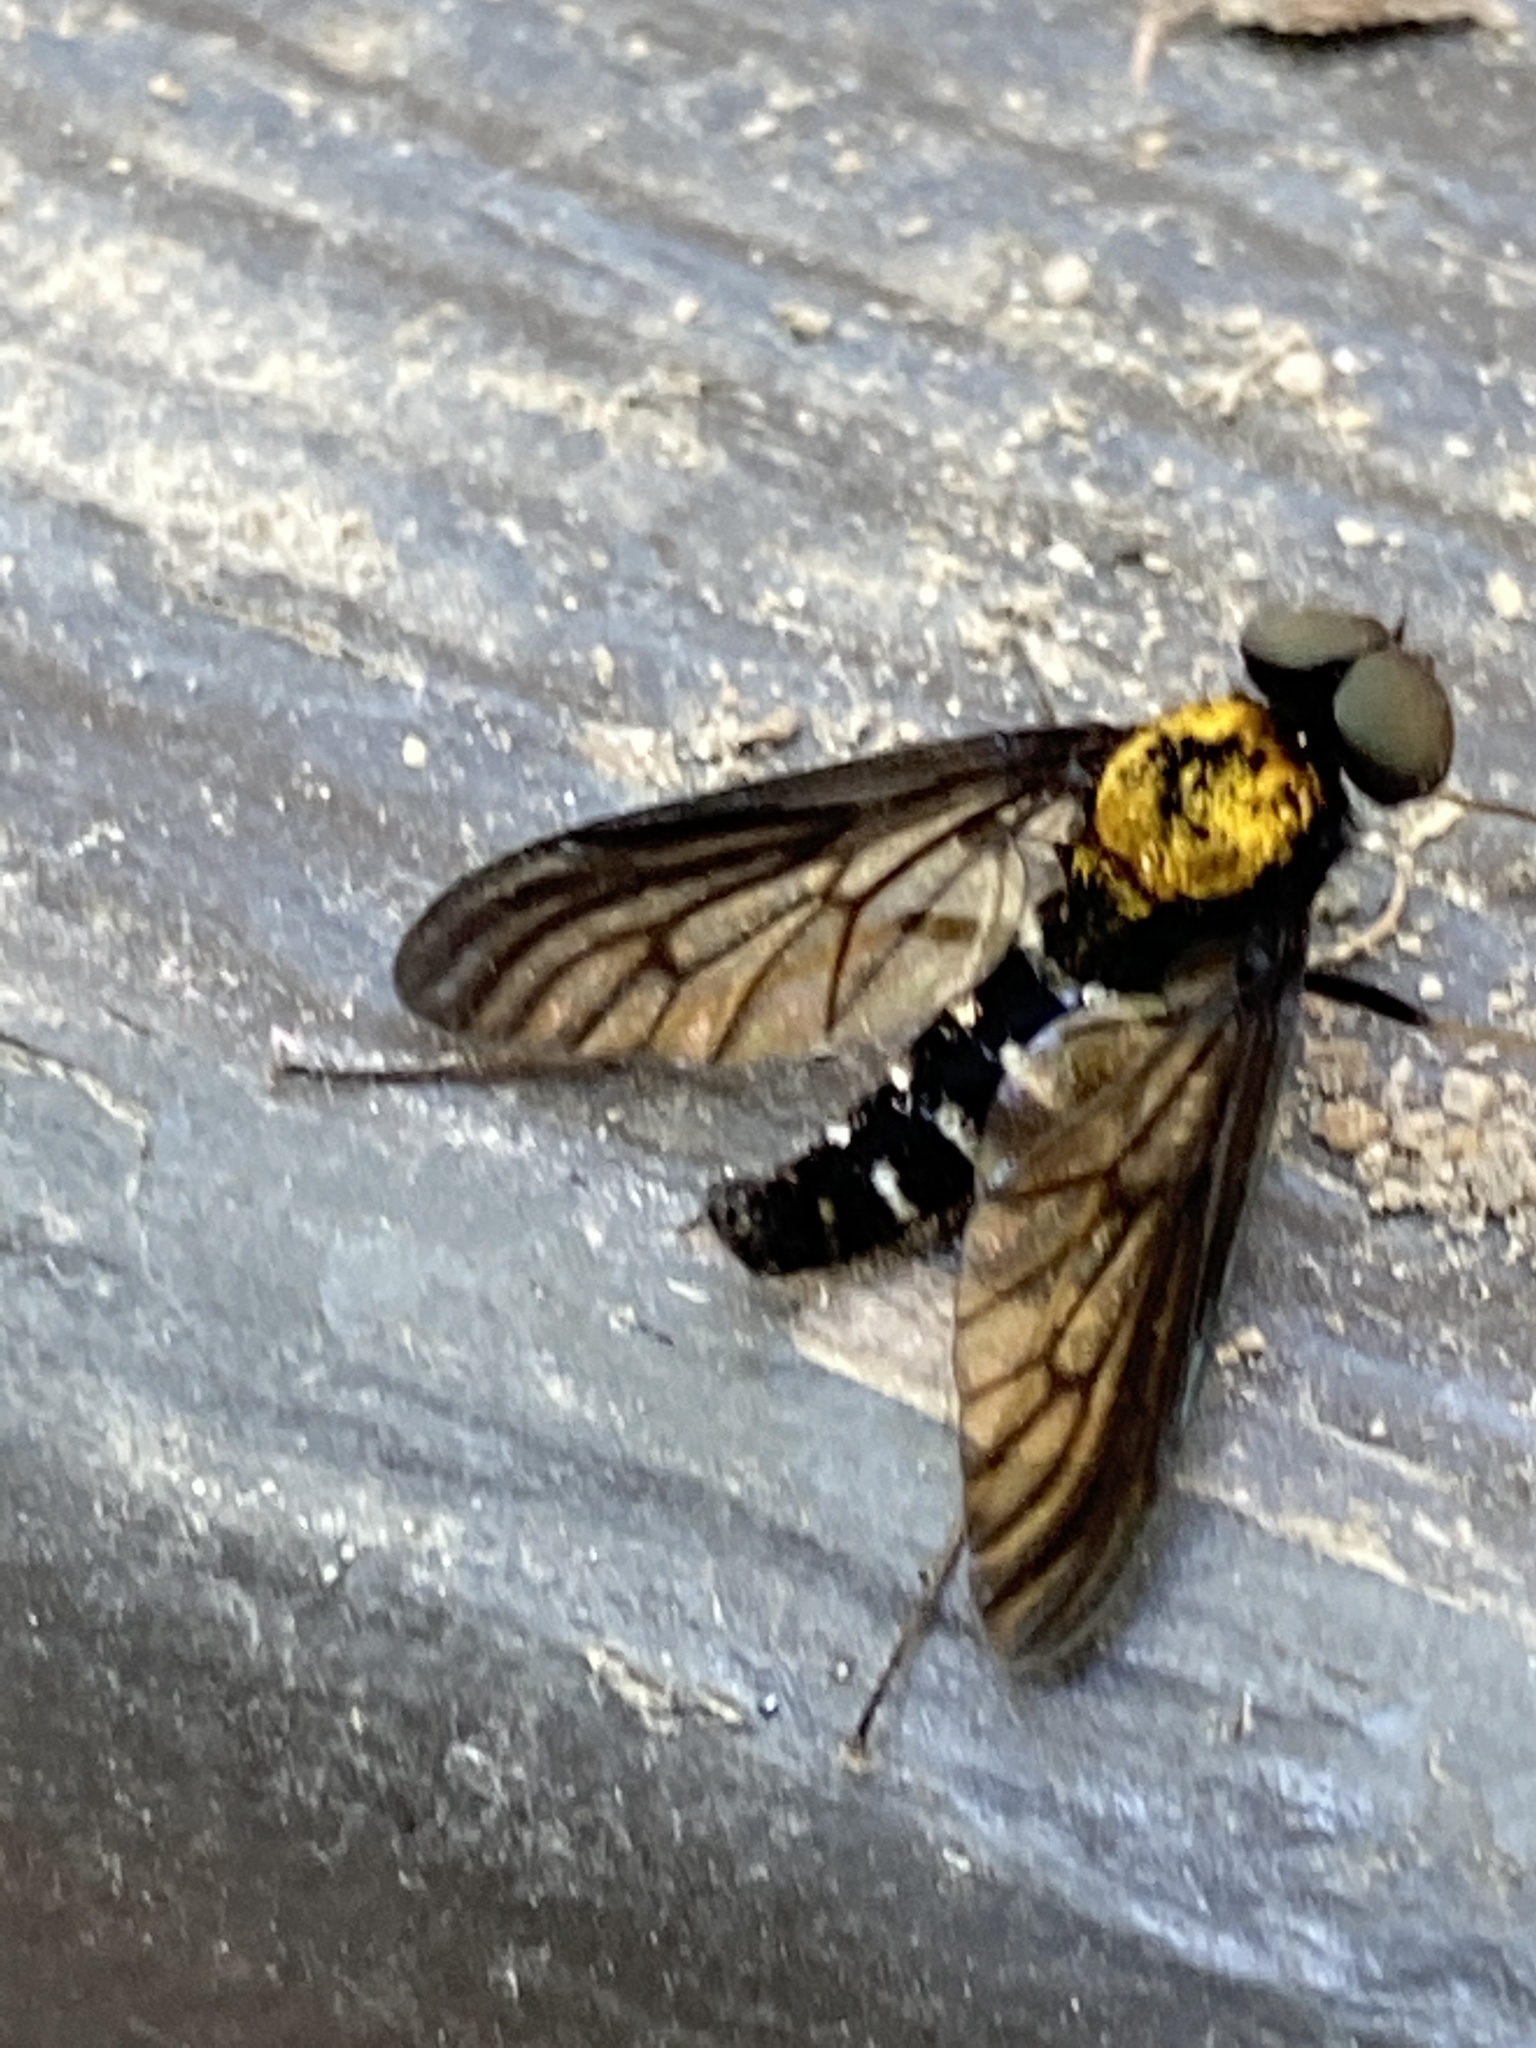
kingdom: Animalia
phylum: Arthropoda
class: Insecta
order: Diptera
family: Rhagionidae
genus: Chrysopilus
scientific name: Chrysopilus thoracicus
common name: Golden-backed snipe fly
